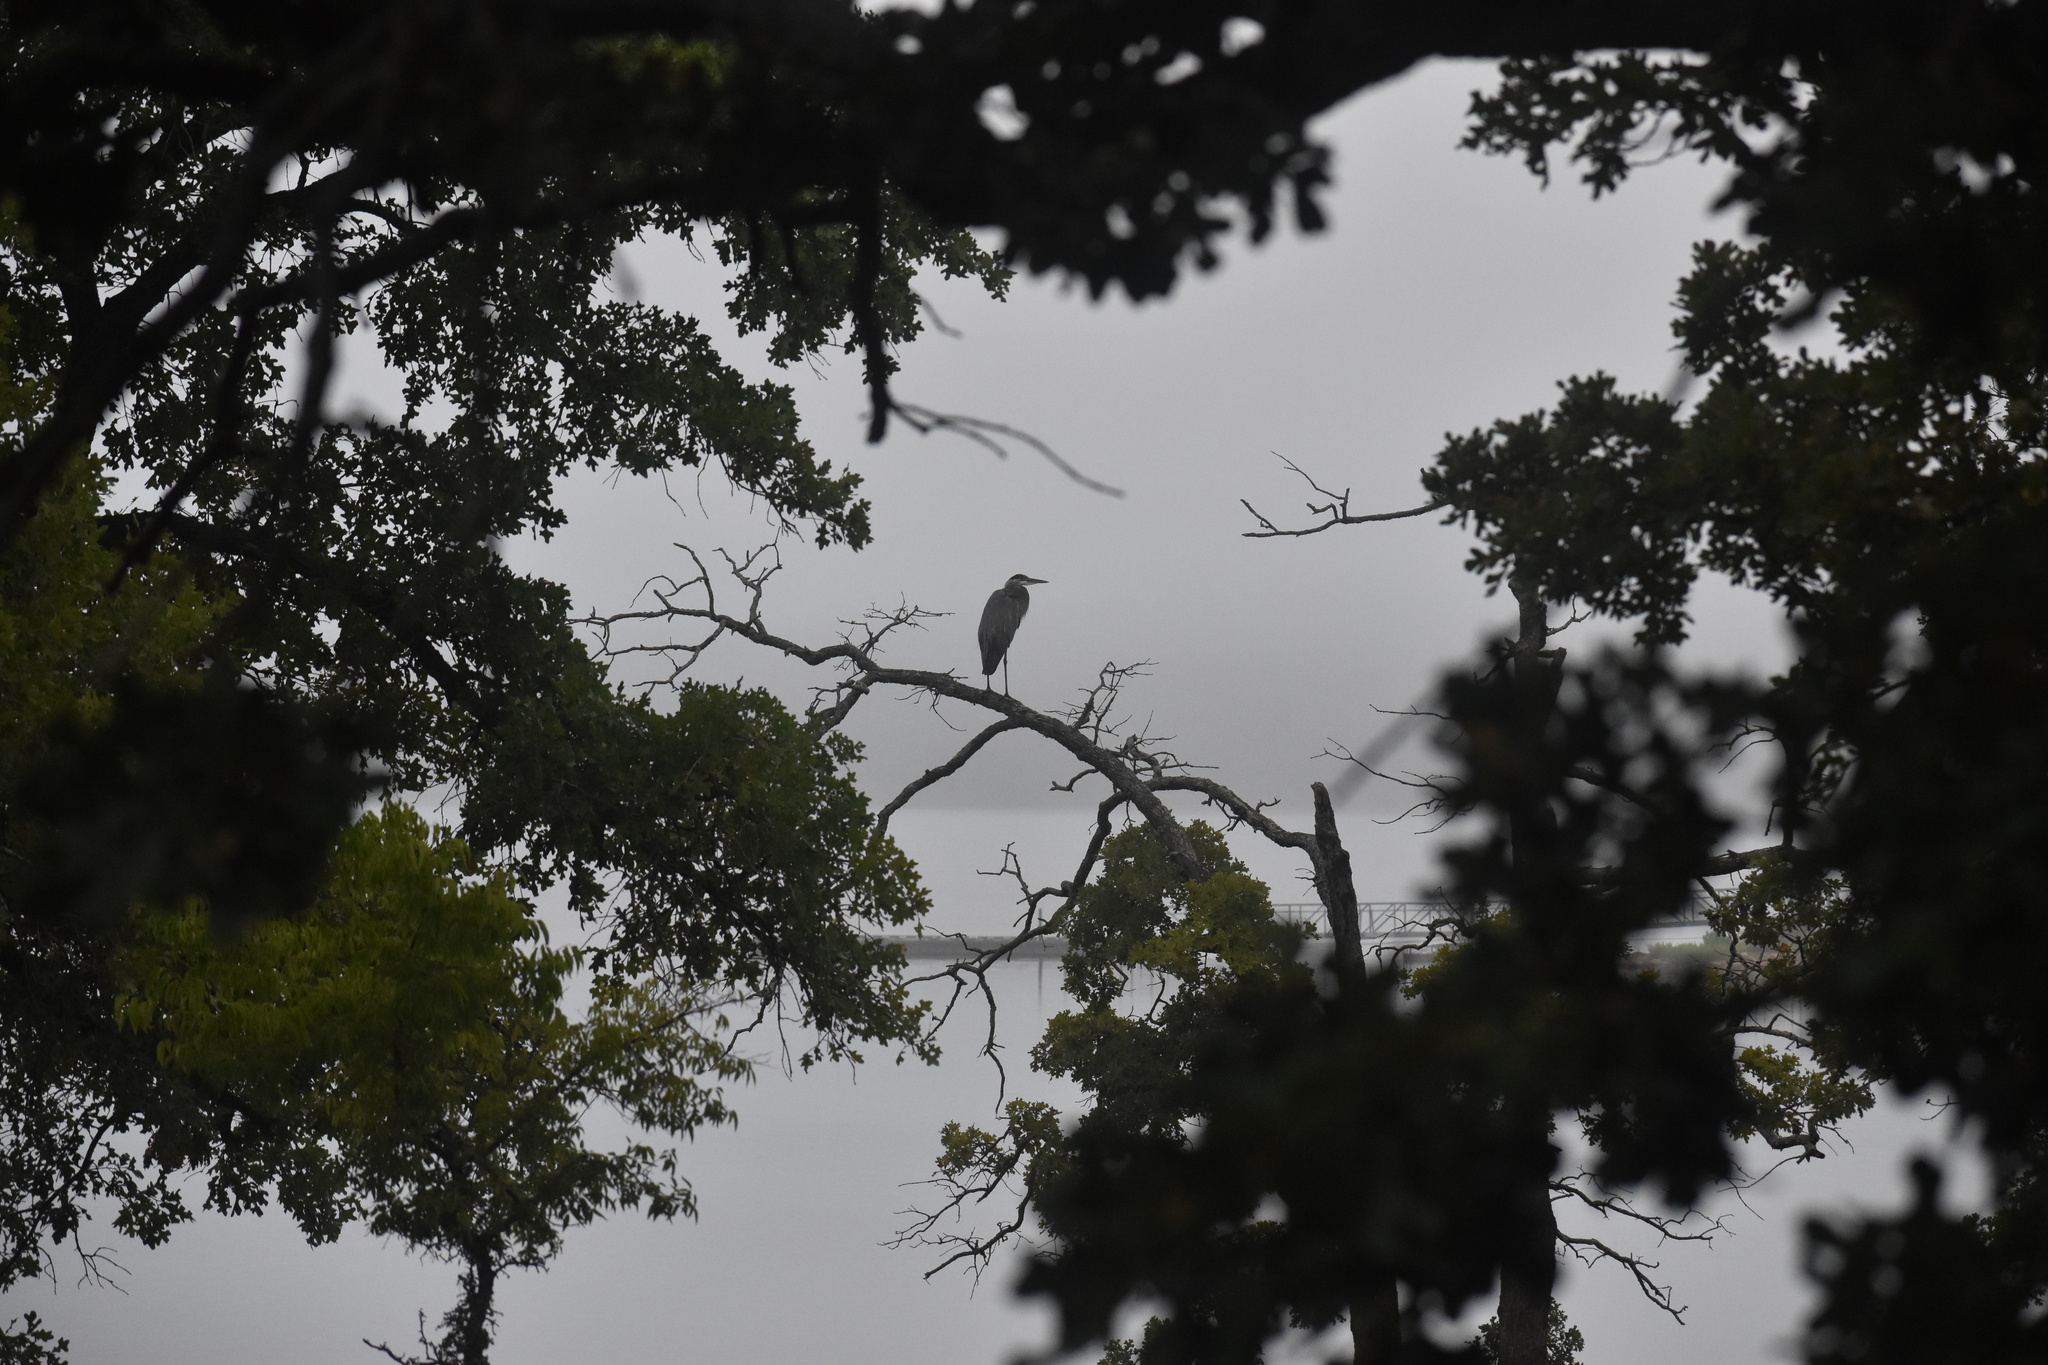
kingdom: Animalia
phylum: Chordata
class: Aves
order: Pelecaniformes
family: Ardeidae
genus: Ardea
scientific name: Ardea herodias
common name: Great blue heron
